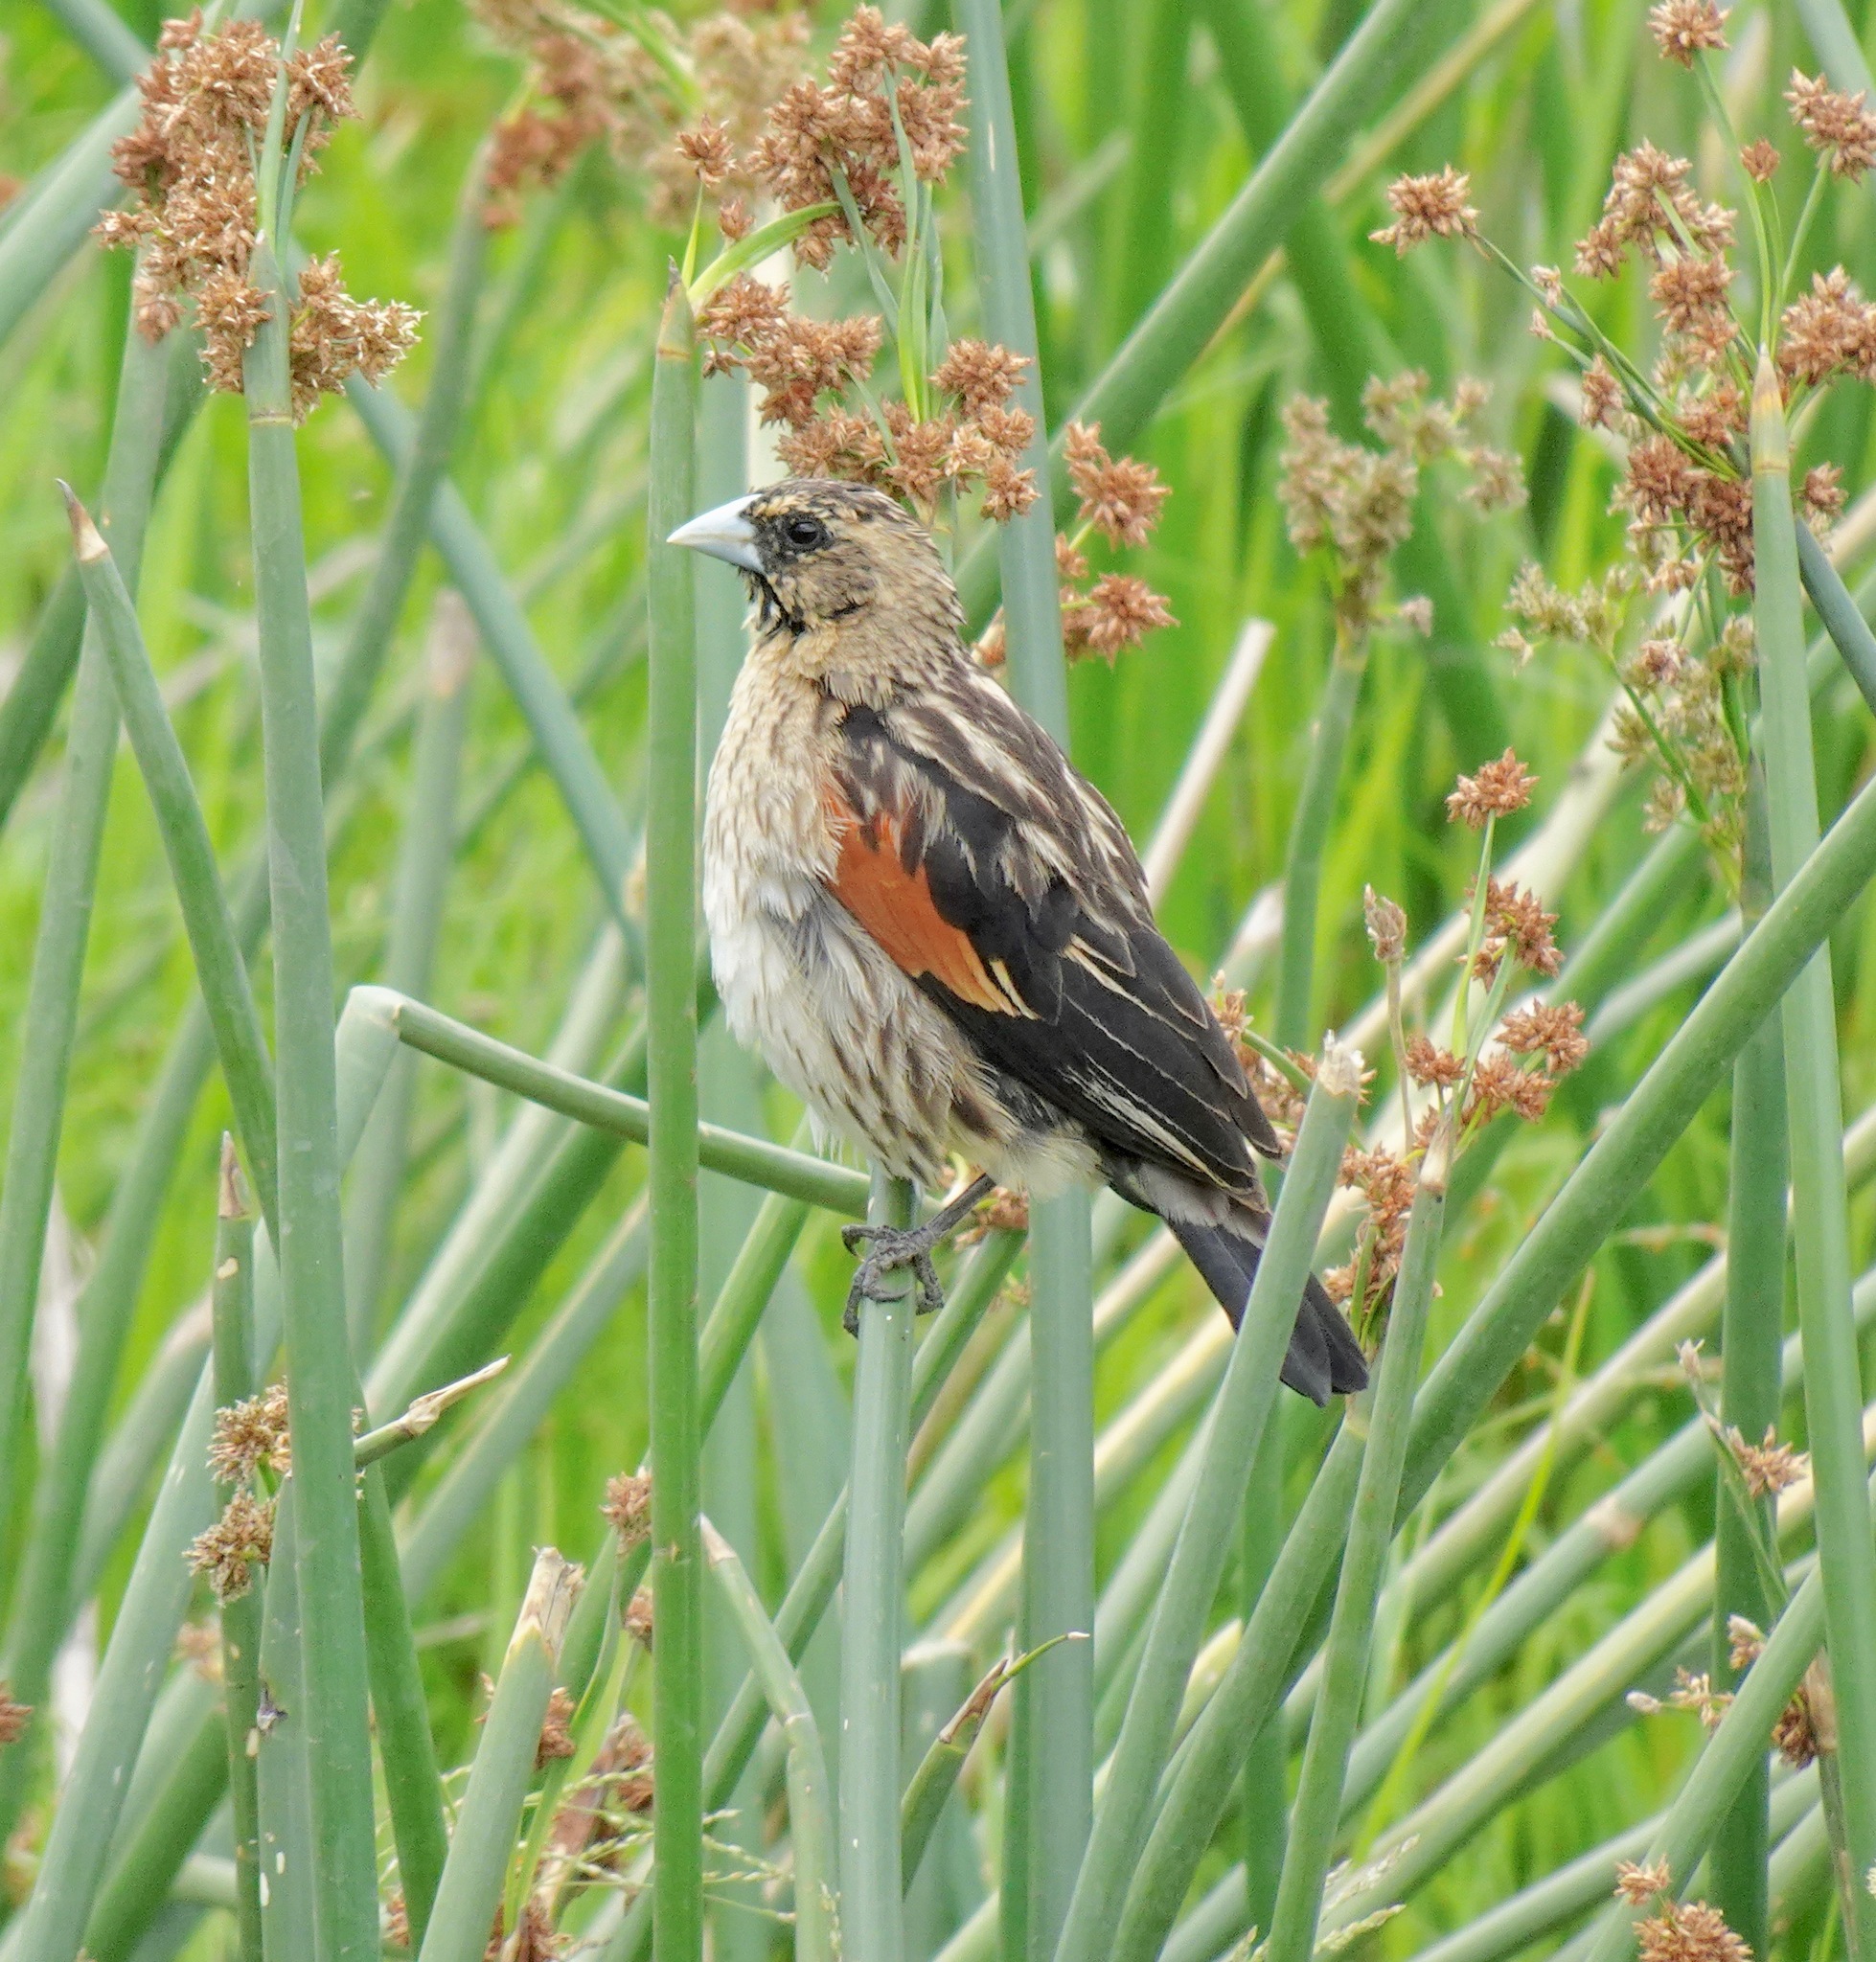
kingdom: Animalia
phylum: Chordata
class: Aves
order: Passeriformes
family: Ploceidae
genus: Euplectes
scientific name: Euplectes axillaris
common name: Fan-tailed widowbird
